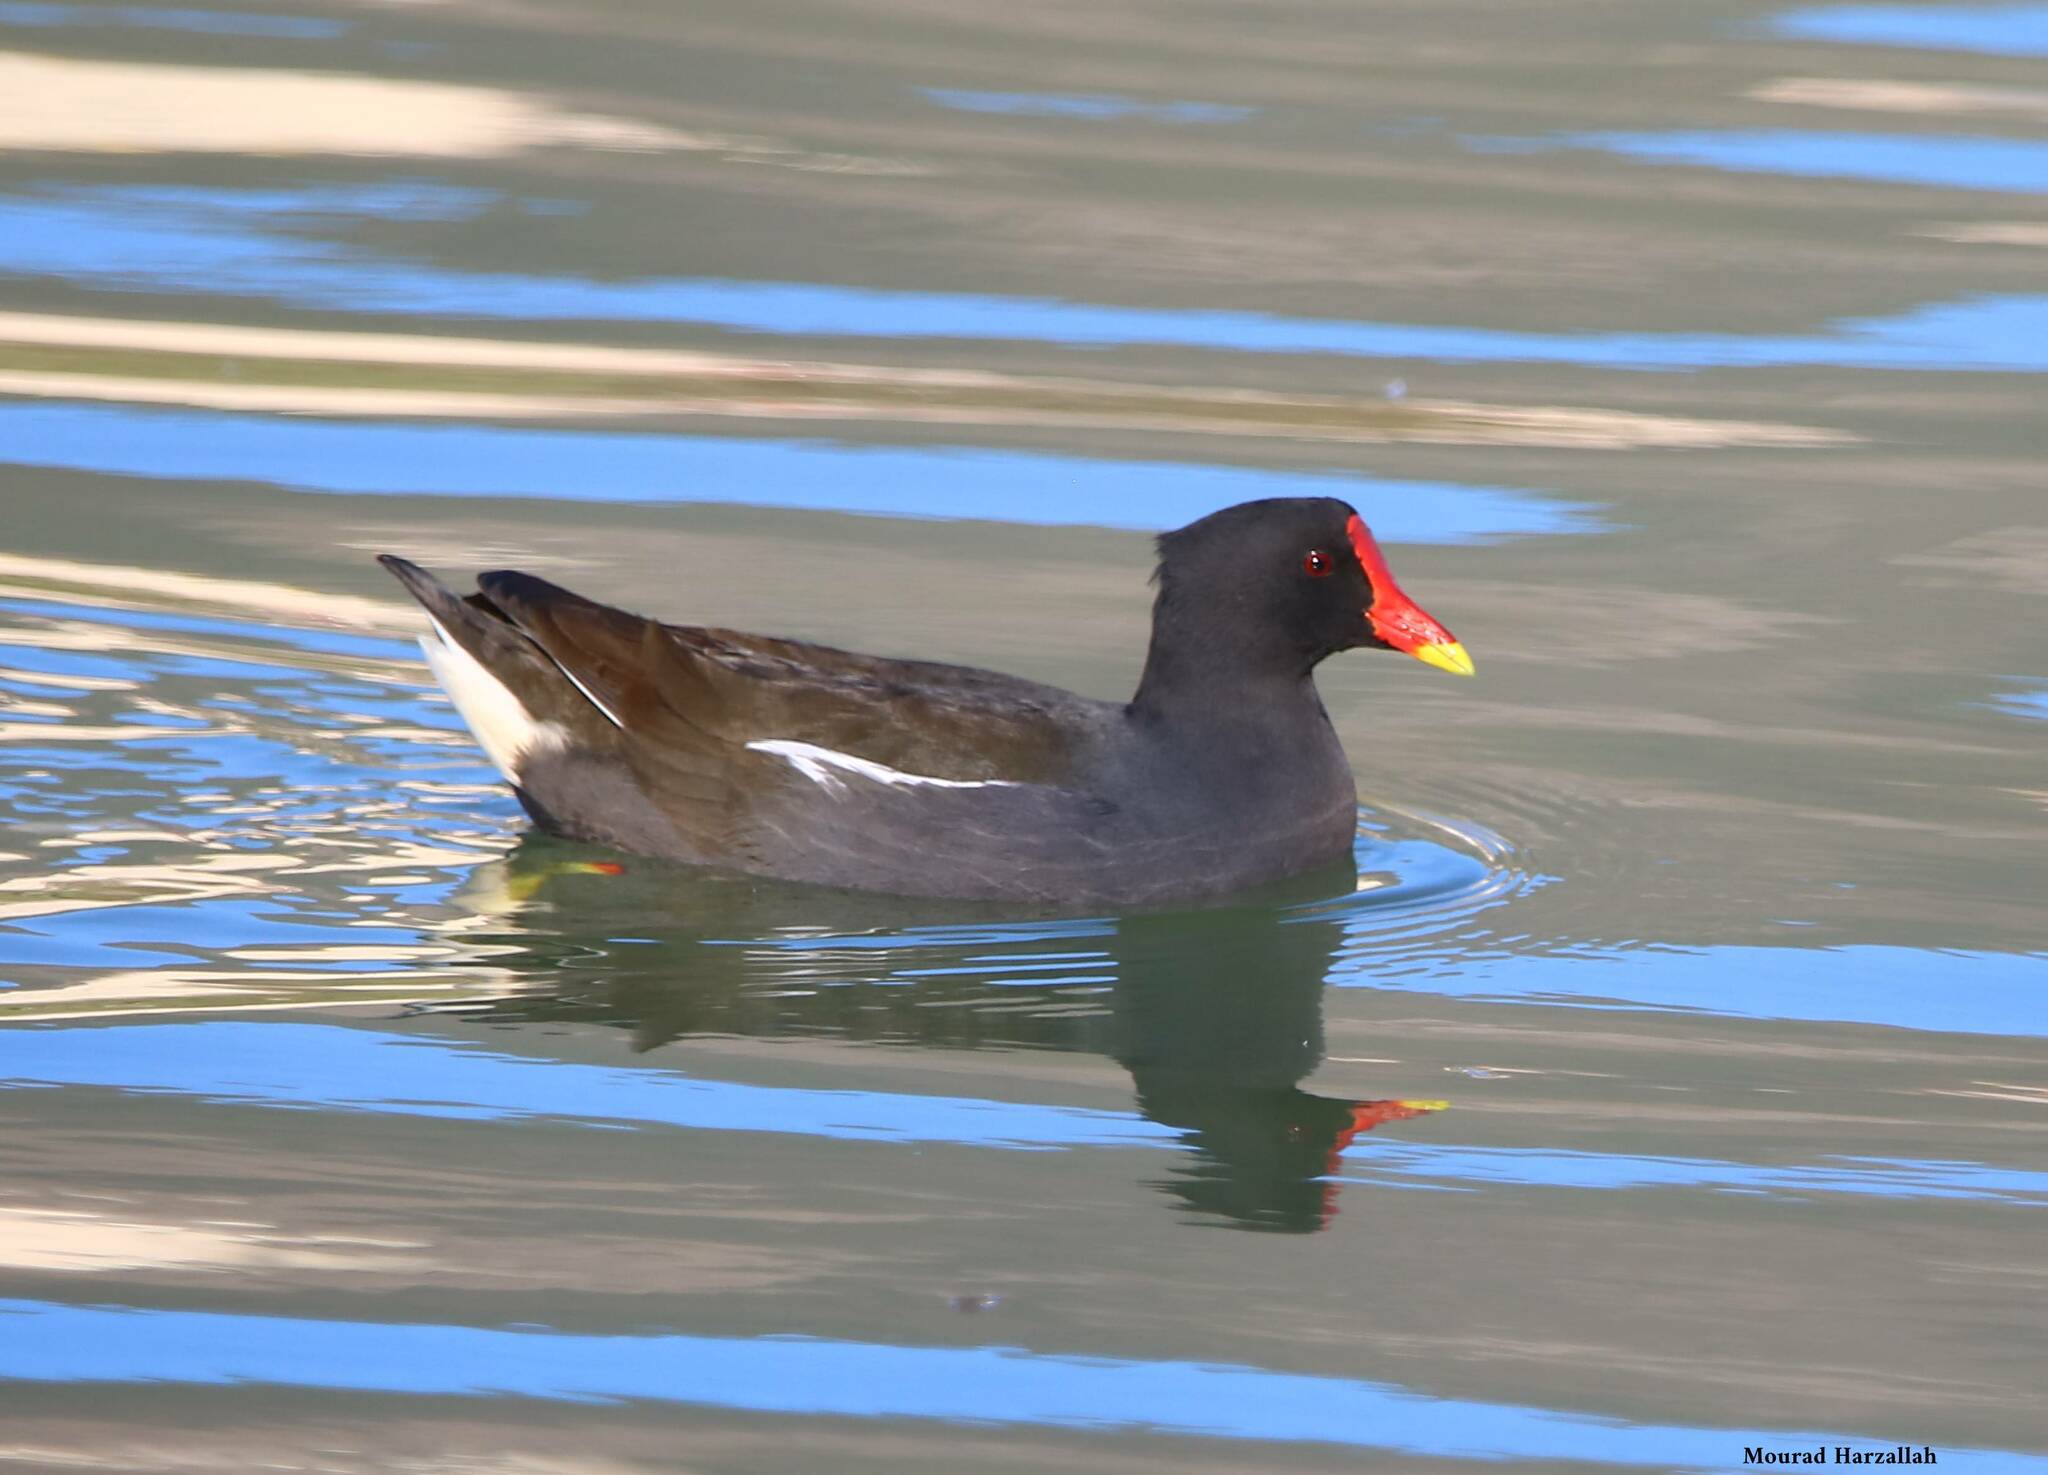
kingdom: Animalia
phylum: Chordata
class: Aves
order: Gruiformes
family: Rallidae
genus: Gallinula
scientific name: Gallinula chloropus
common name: Common moorhen
